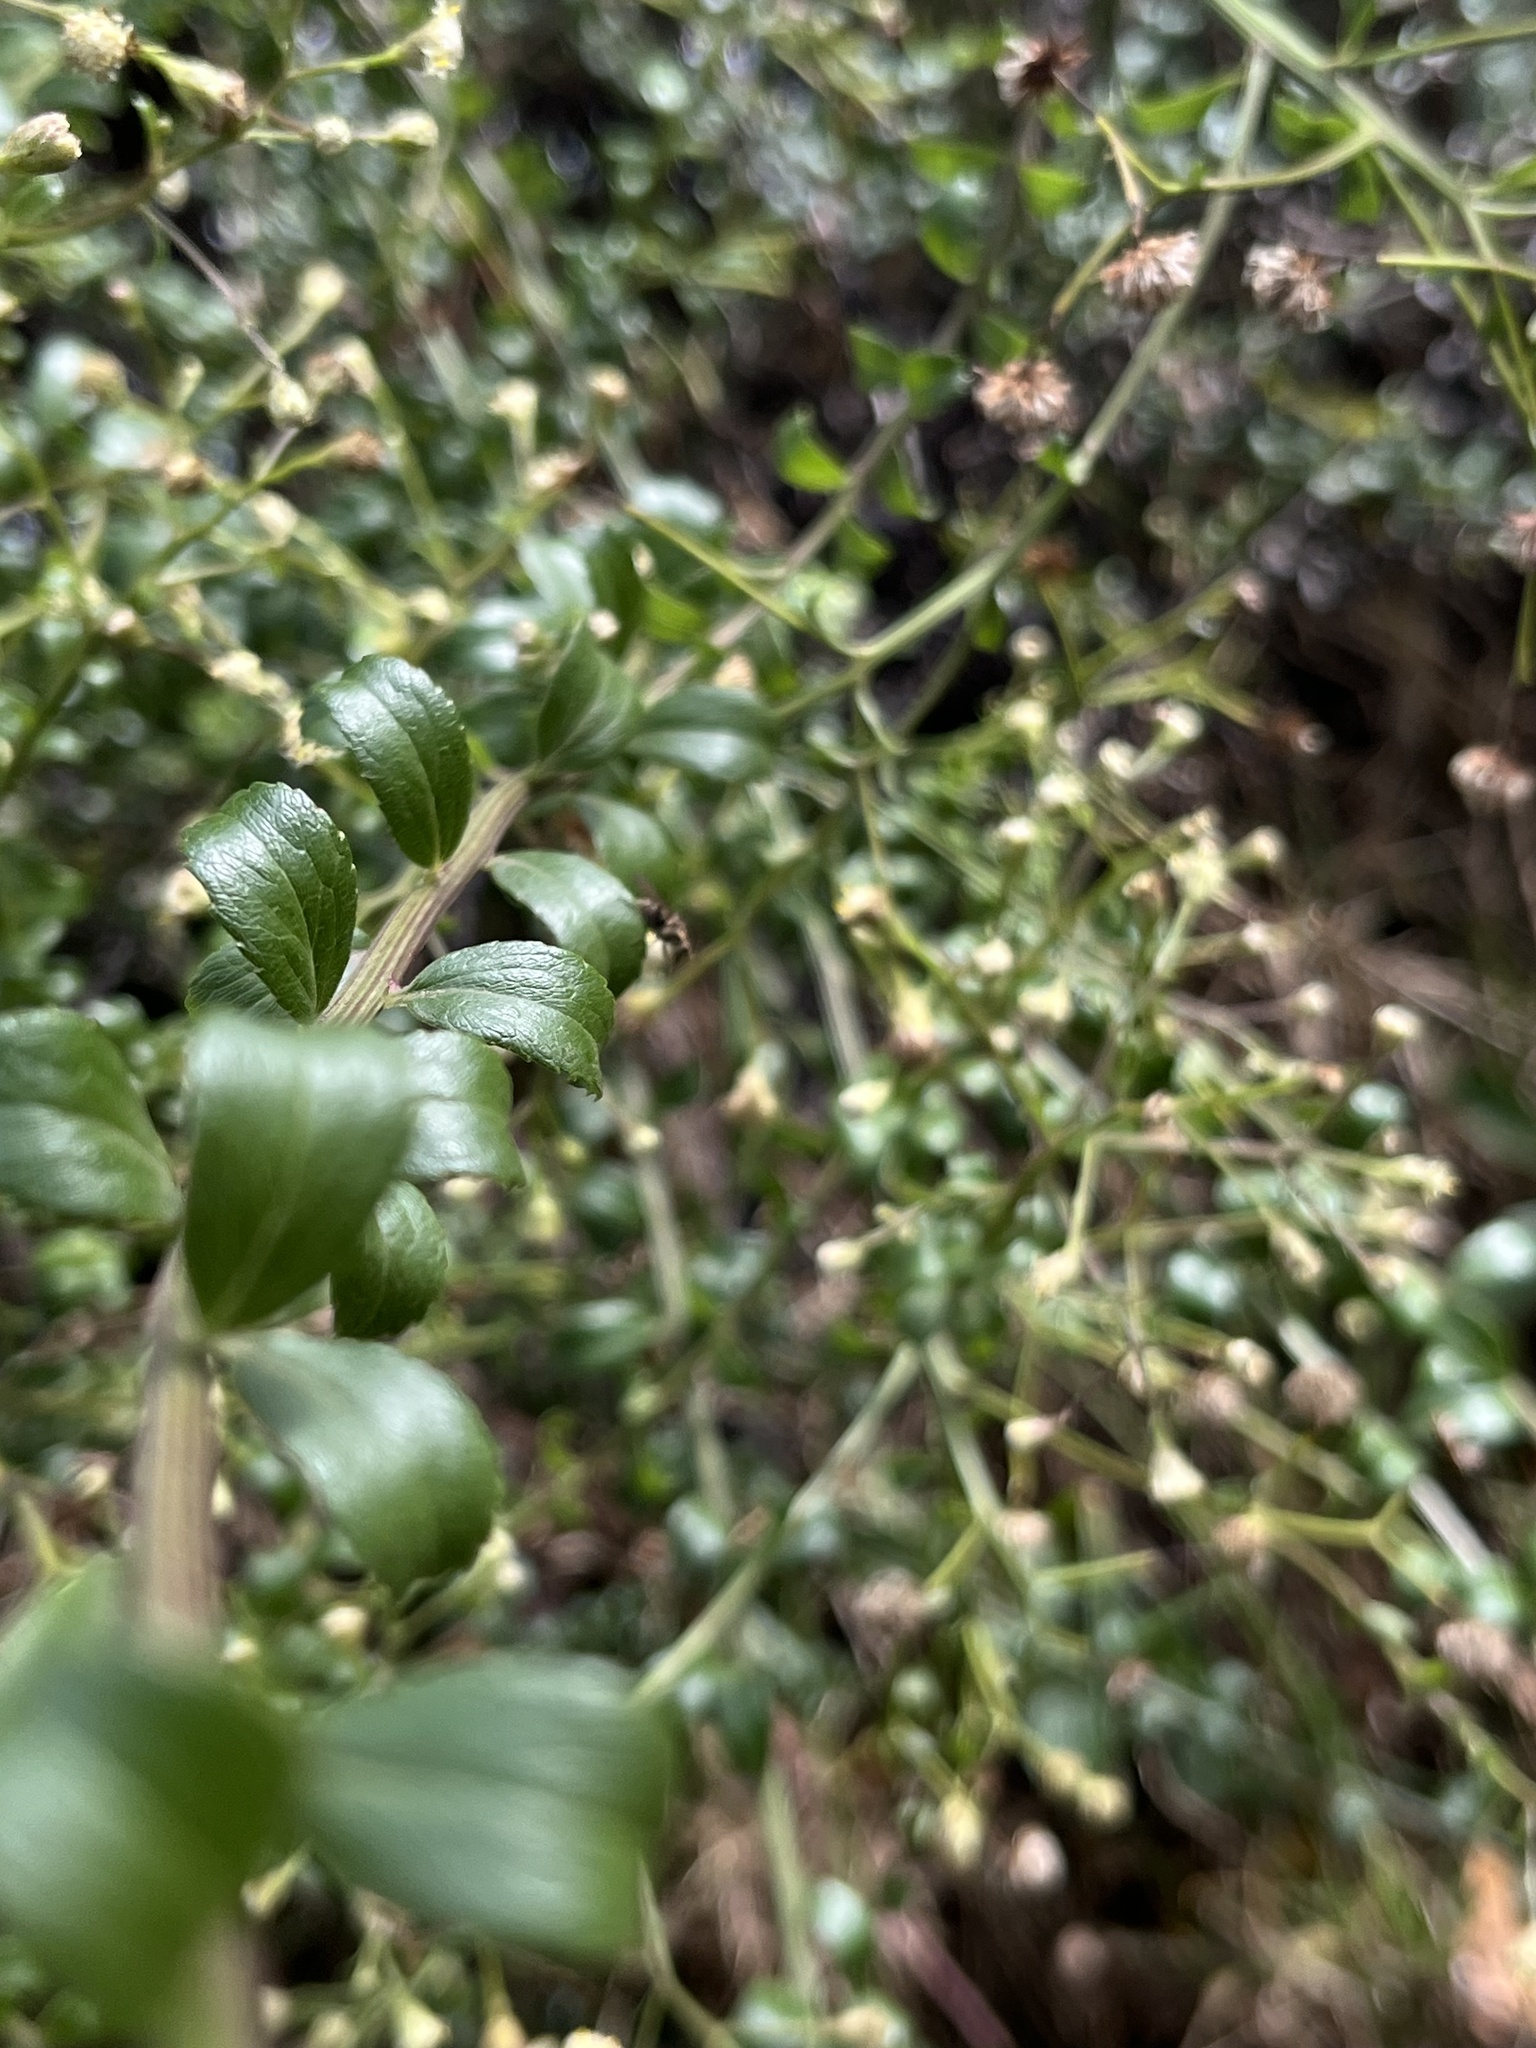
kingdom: Plantae
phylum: Tracheophyta
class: Magnoliopsida
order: Asterales
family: Asteraceae
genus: Baccharis
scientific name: Baccharis bogotensis
